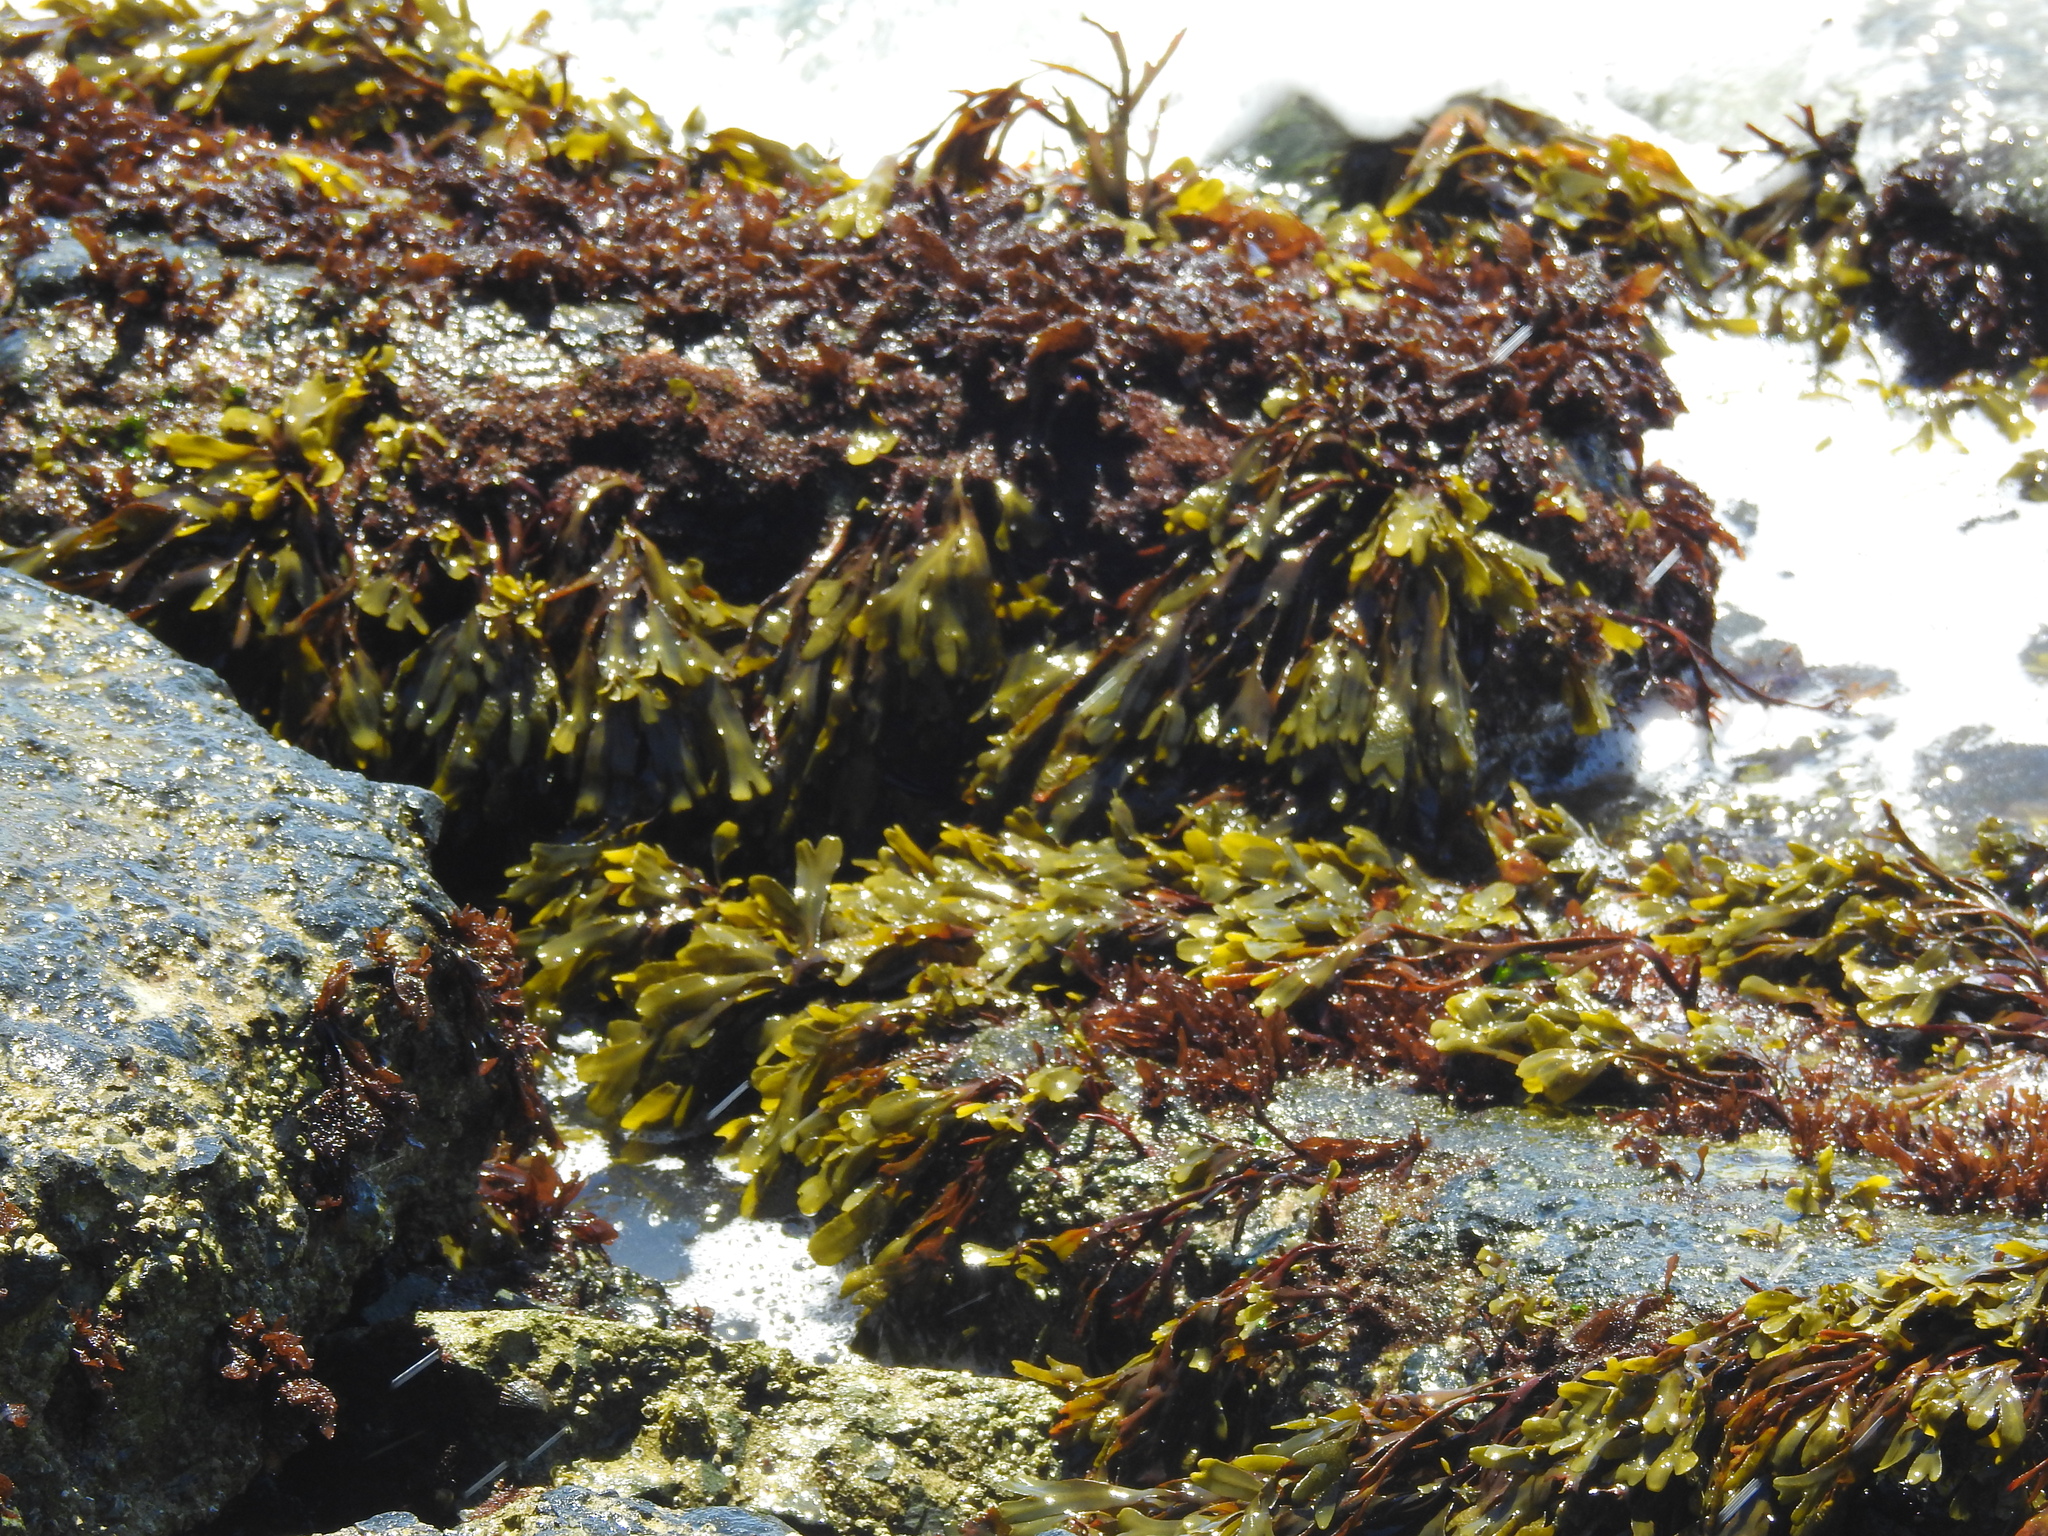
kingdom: Chromista
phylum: Ochrophyta
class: Phaeophyceae
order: Fucales
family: Fucaceae
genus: Fucus
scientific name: Fucus distichus
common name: Rockweed
